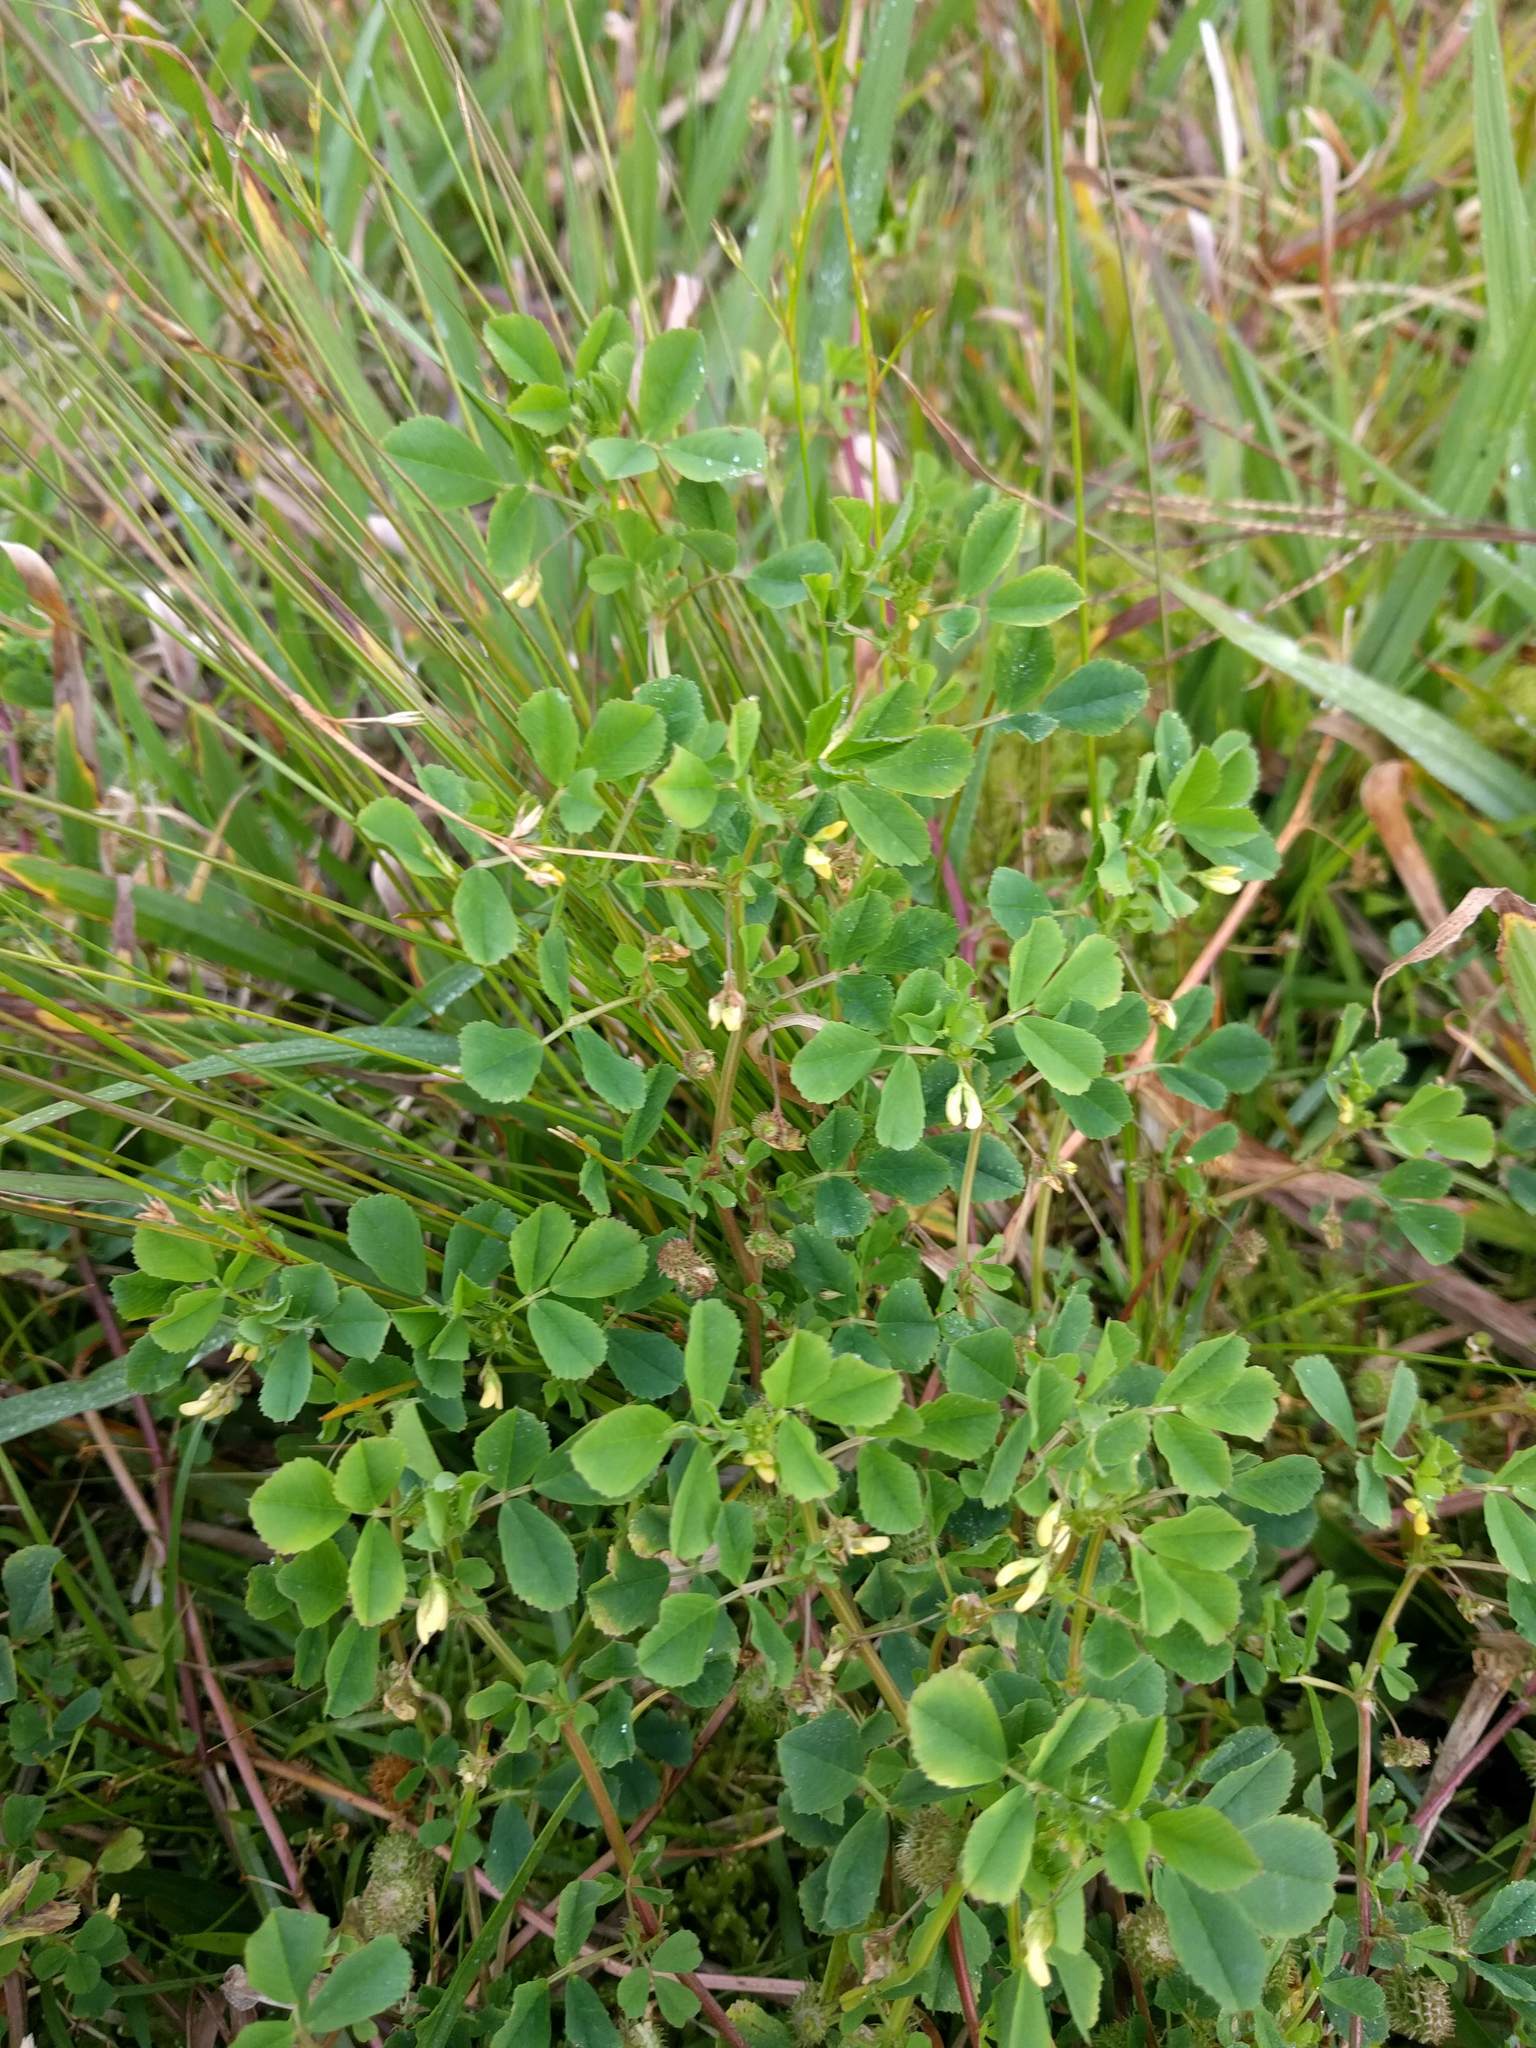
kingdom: Plantae
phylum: Tracheophyta
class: Magnoliopsida
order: Fabales
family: Fabaceae
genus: Medicago
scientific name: Medicago polymorpha
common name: Burclover
